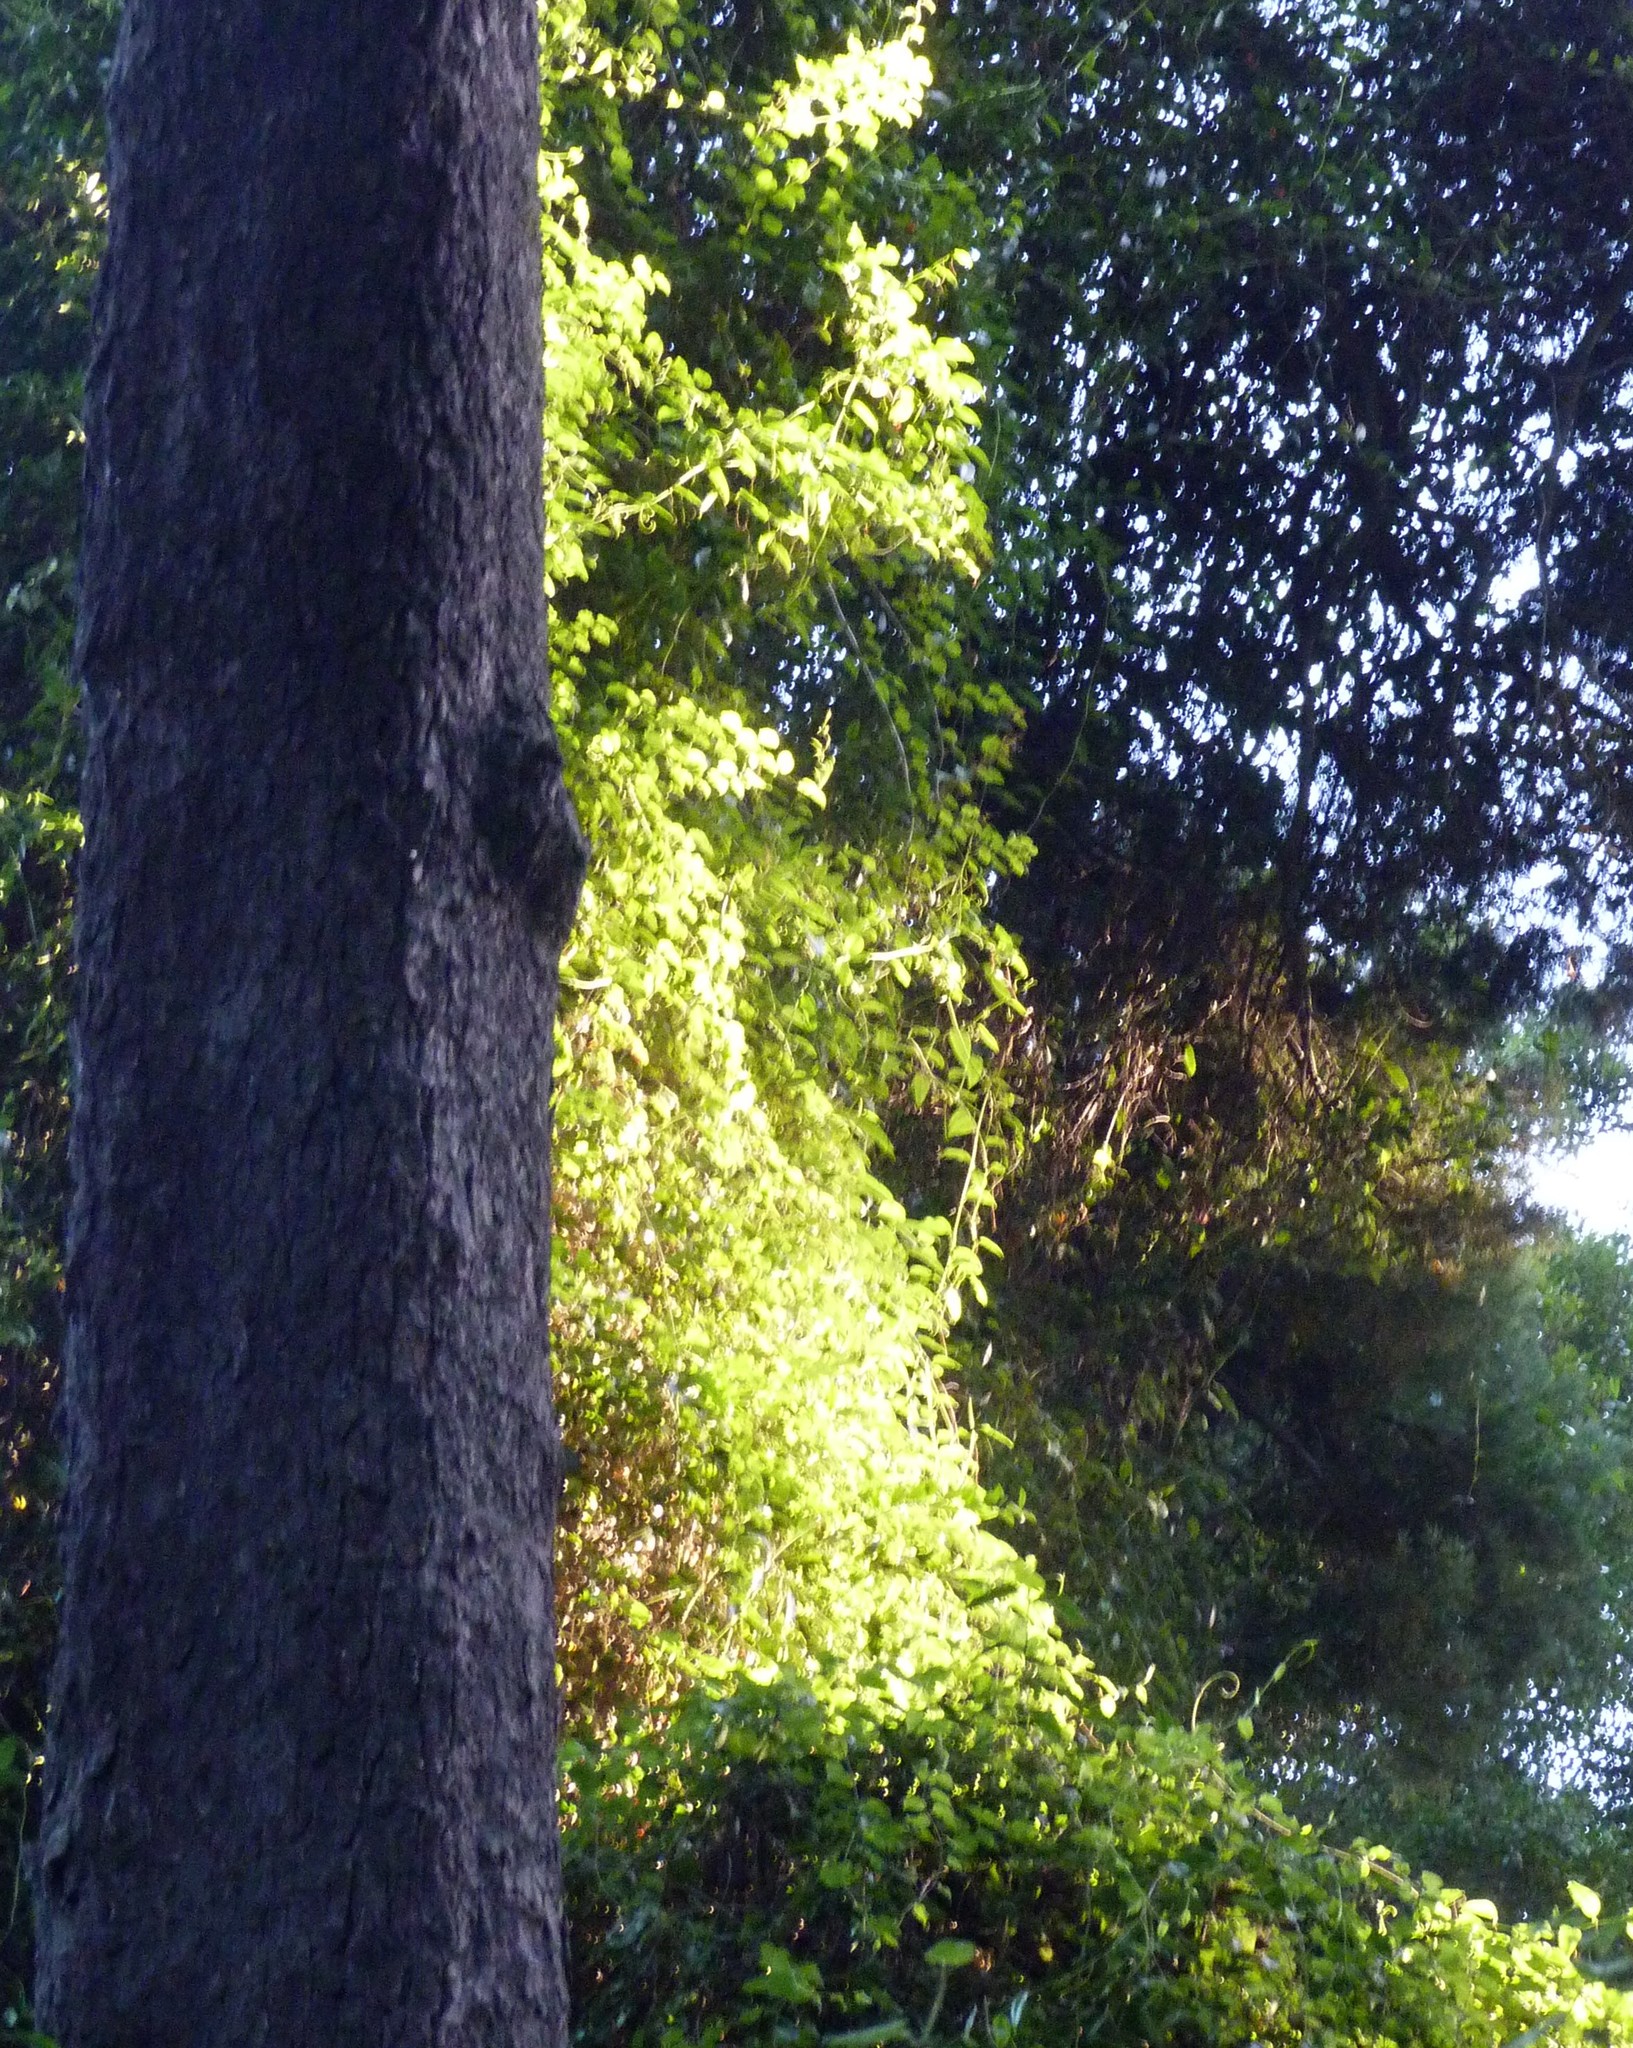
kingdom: Plantae
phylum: Tracheophyta
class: Magnoliopsida
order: Caryophyllales
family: Polygonaceae
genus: Muehlenbeckia
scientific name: Muehlenbeckia australis
